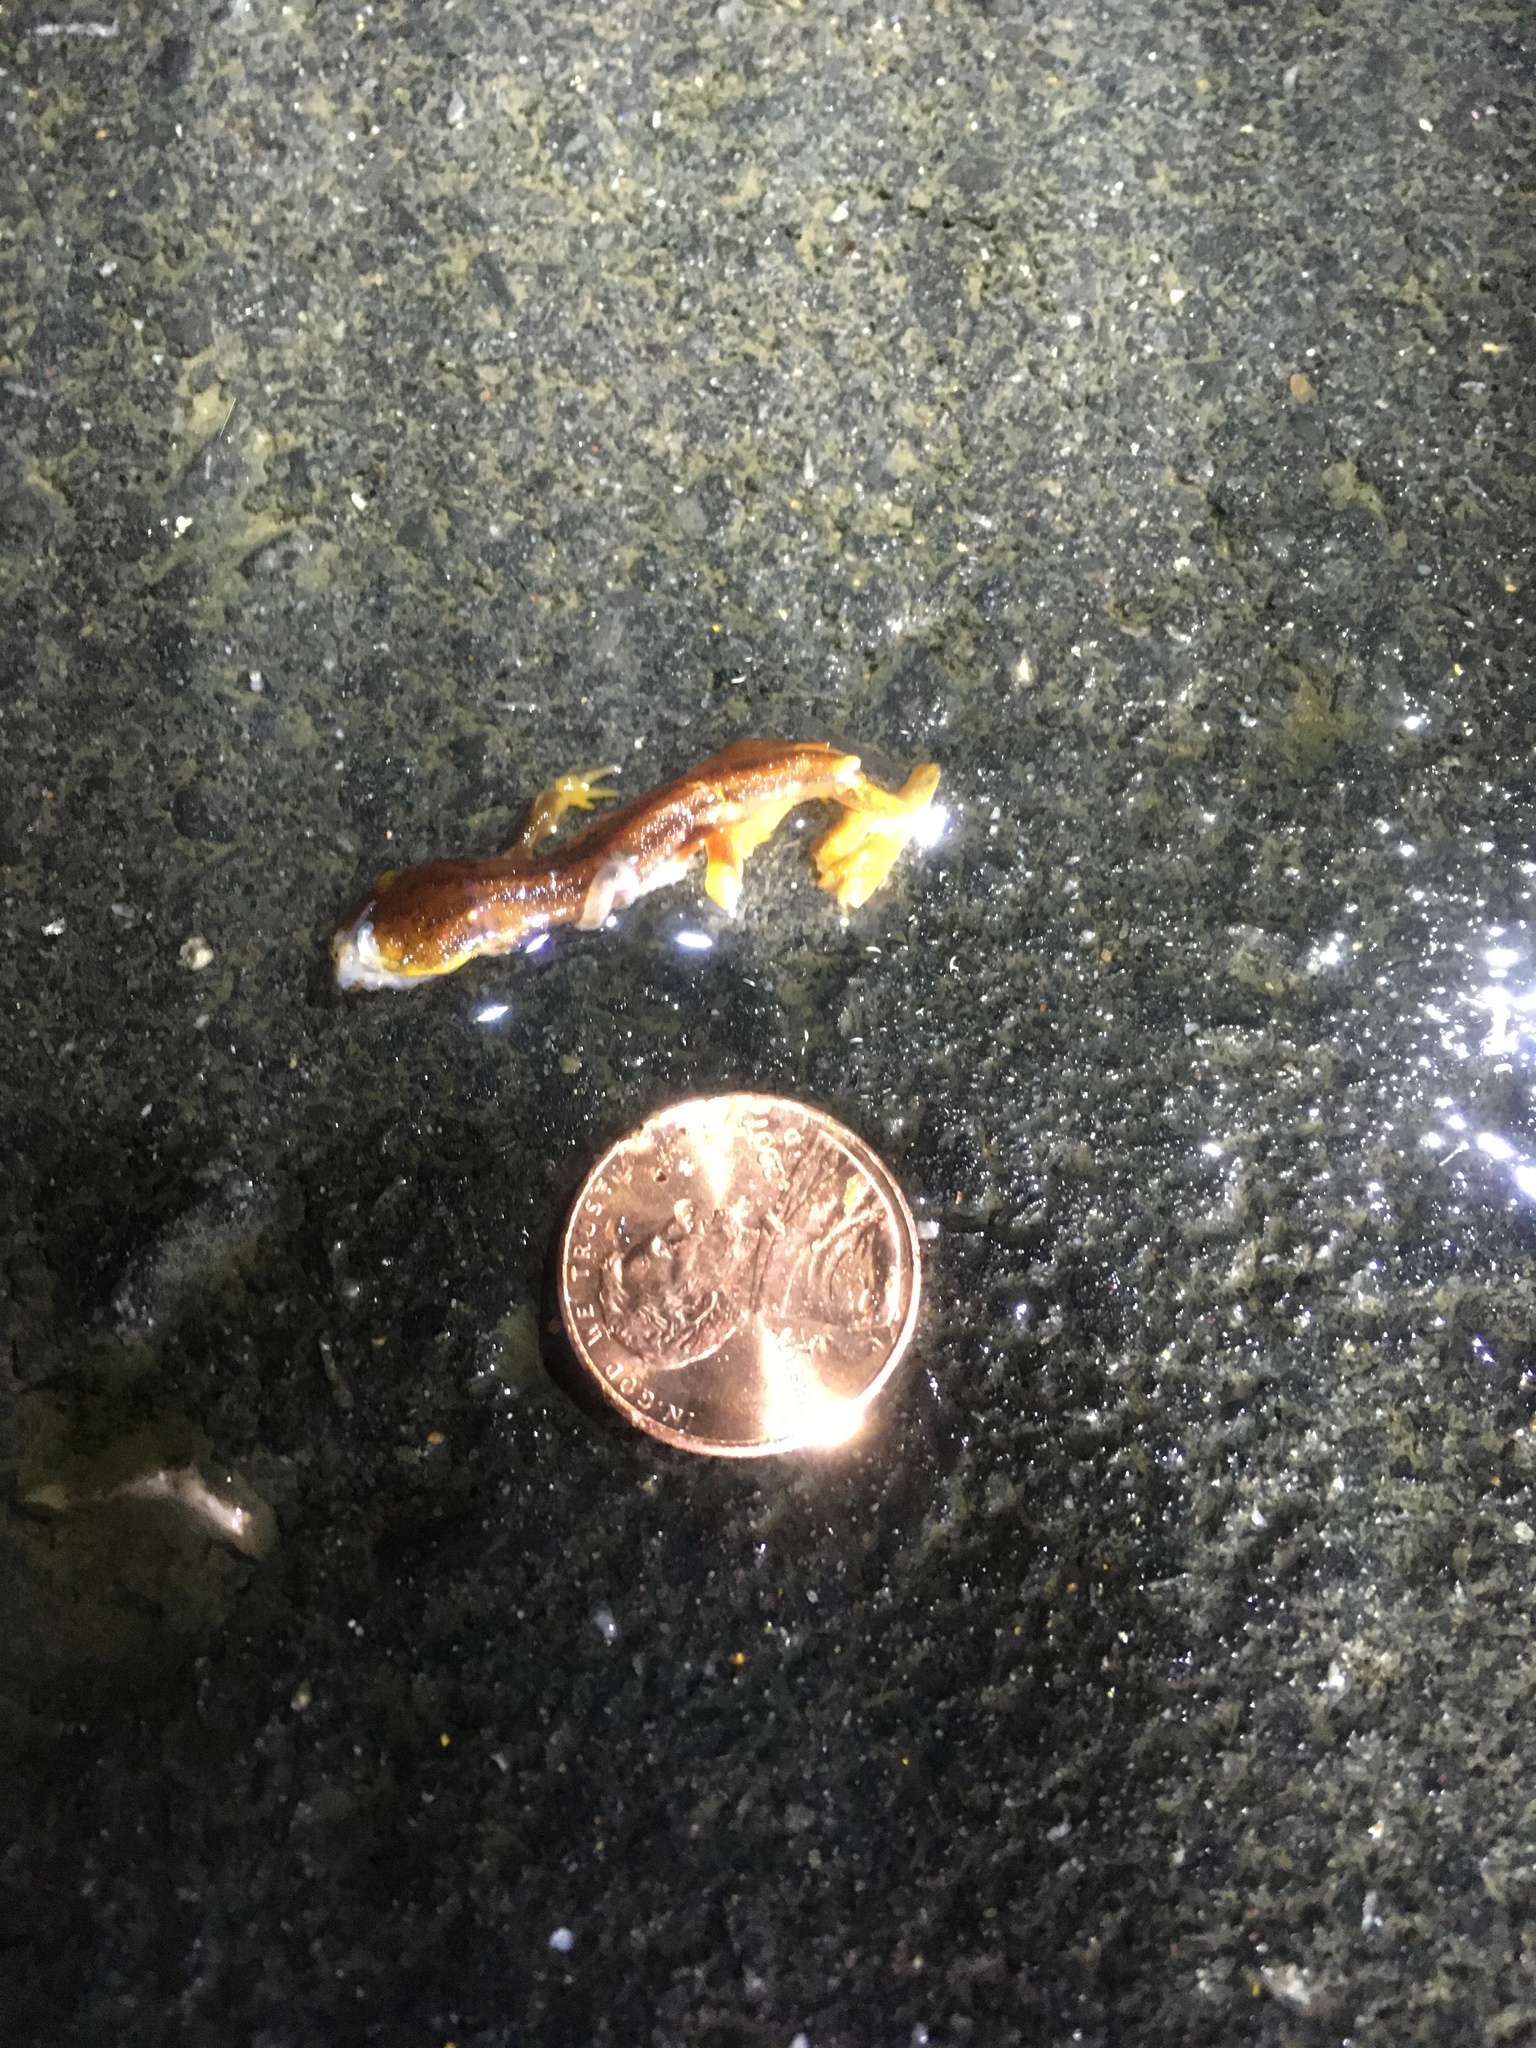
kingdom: Animalia
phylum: Chordata
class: Amphibia
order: Caudata
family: Salamandridae
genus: Taricha
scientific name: Taricha
